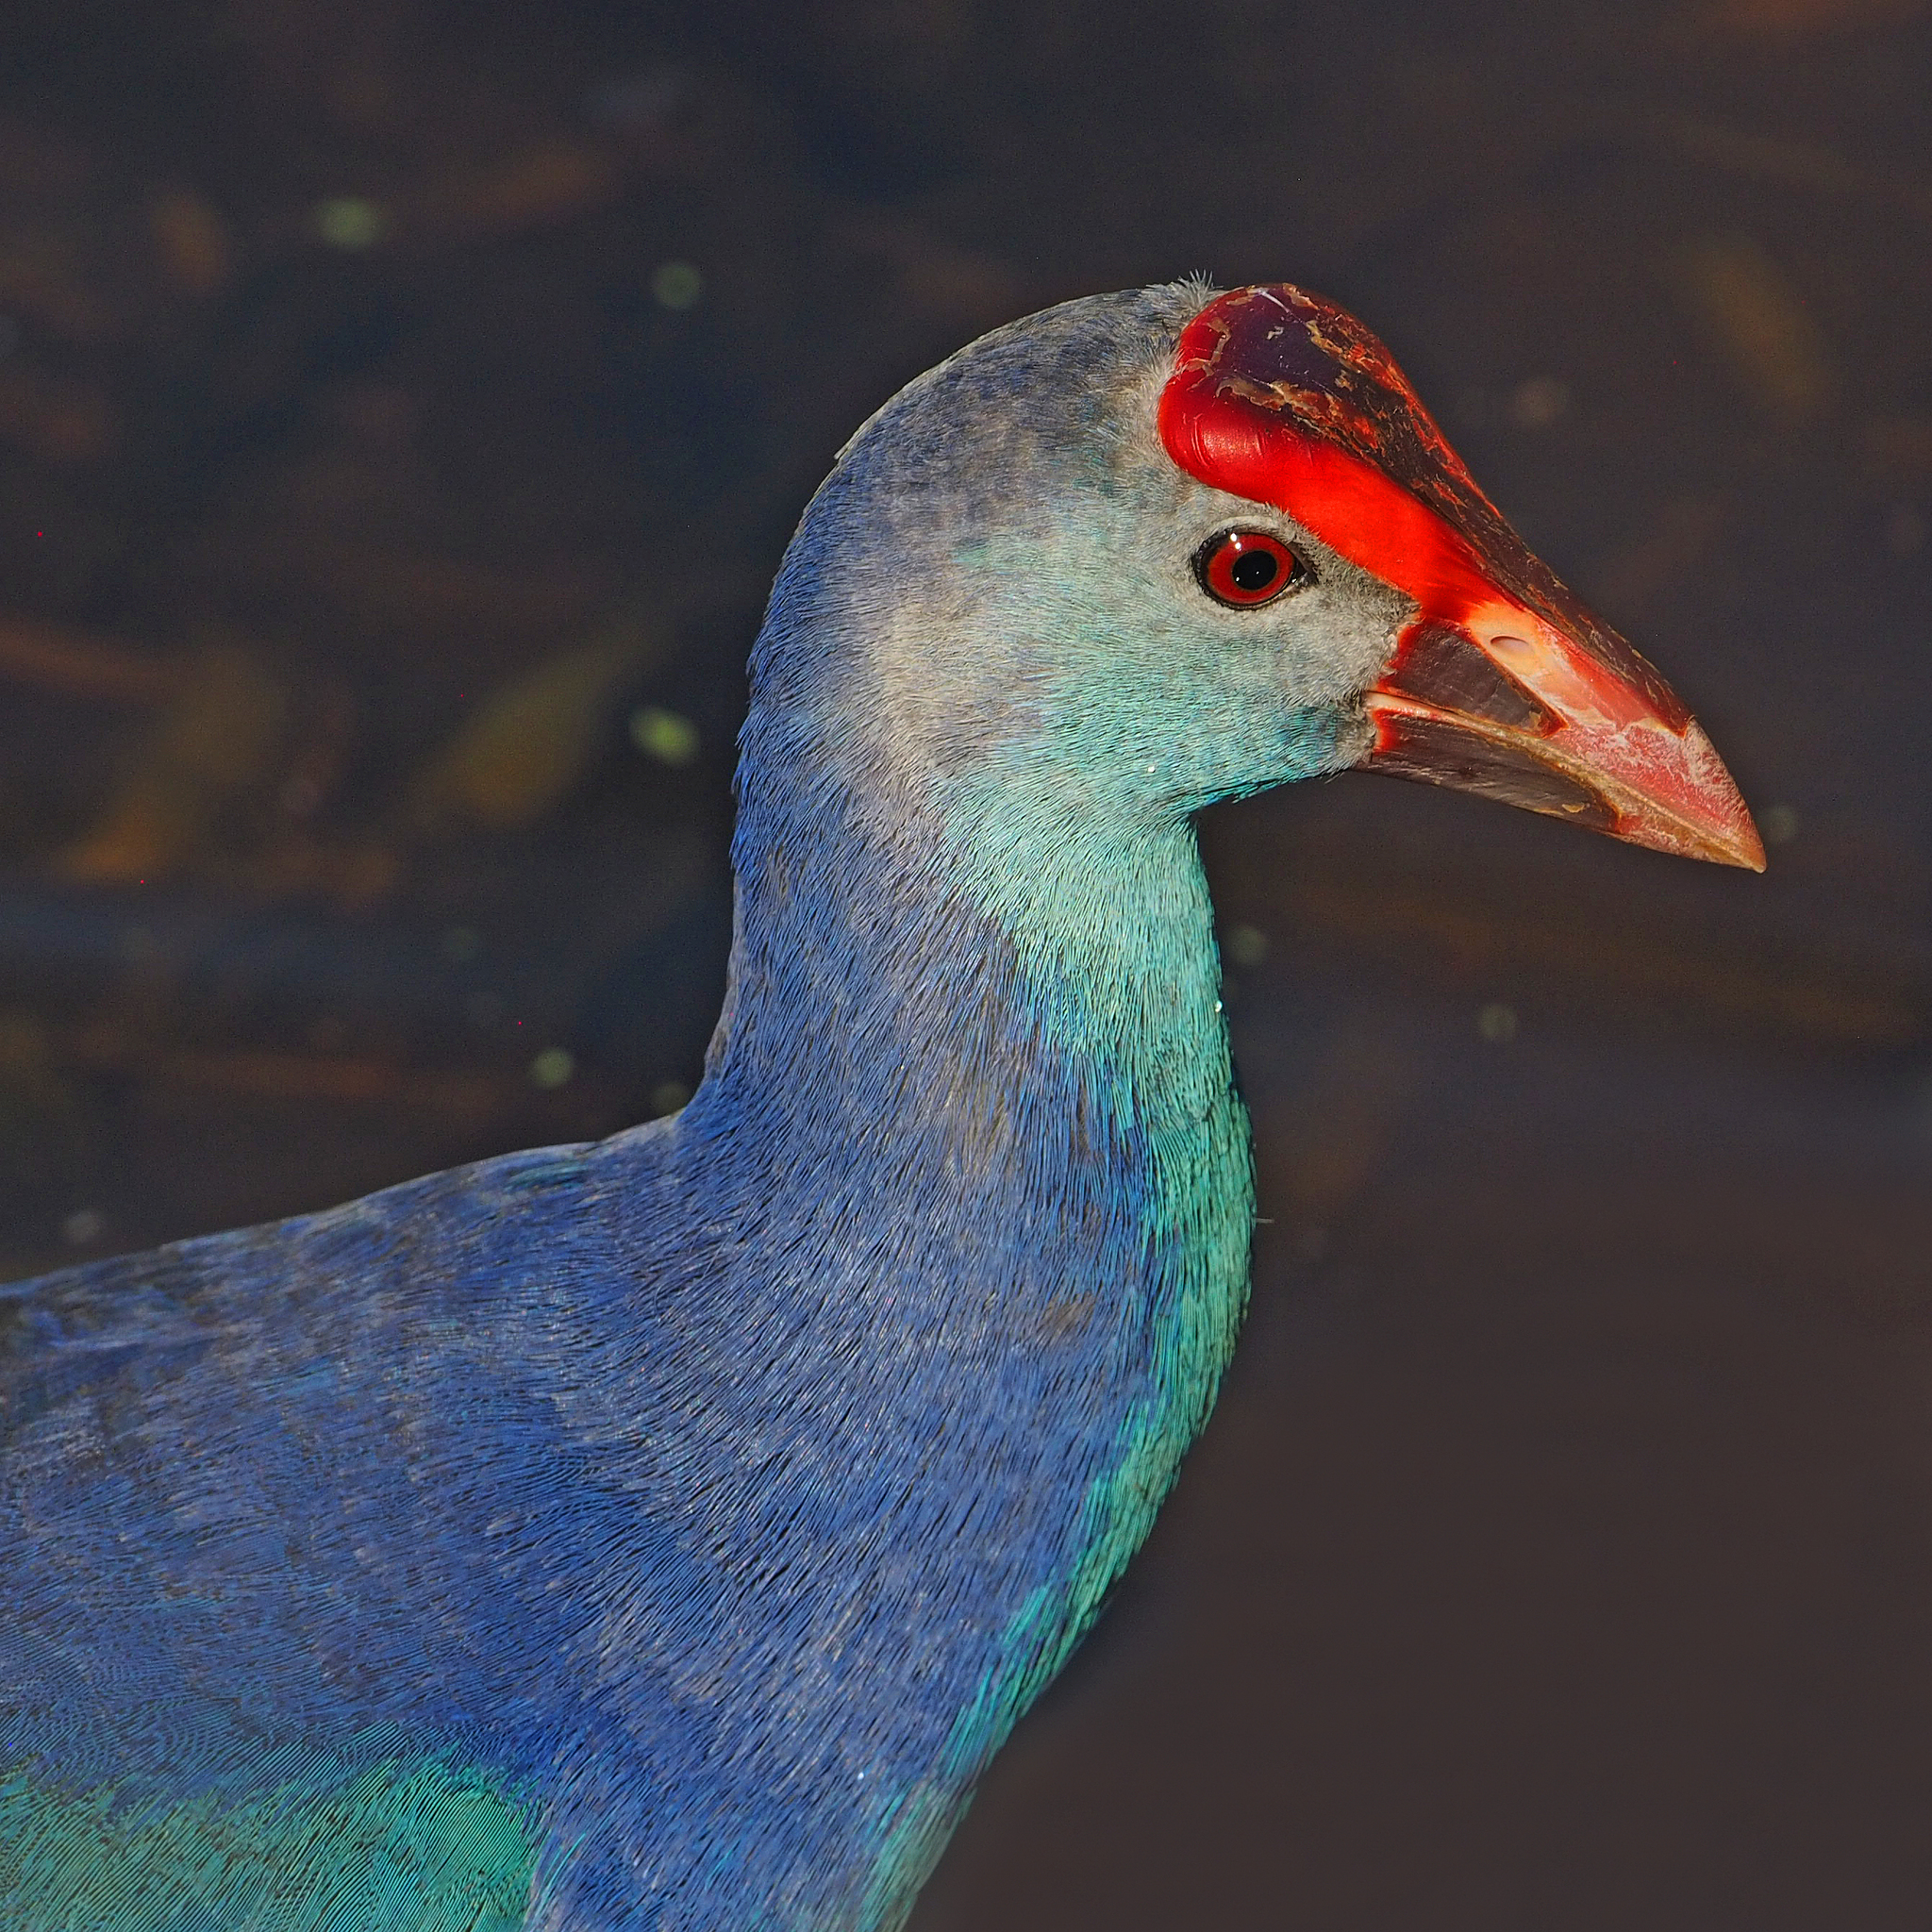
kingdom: Animalia
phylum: Chordata
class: Aves
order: Gruiformes
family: Rallidae
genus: Porphyrio
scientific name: Porphyrio porphyrio
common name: Purple swamphen
